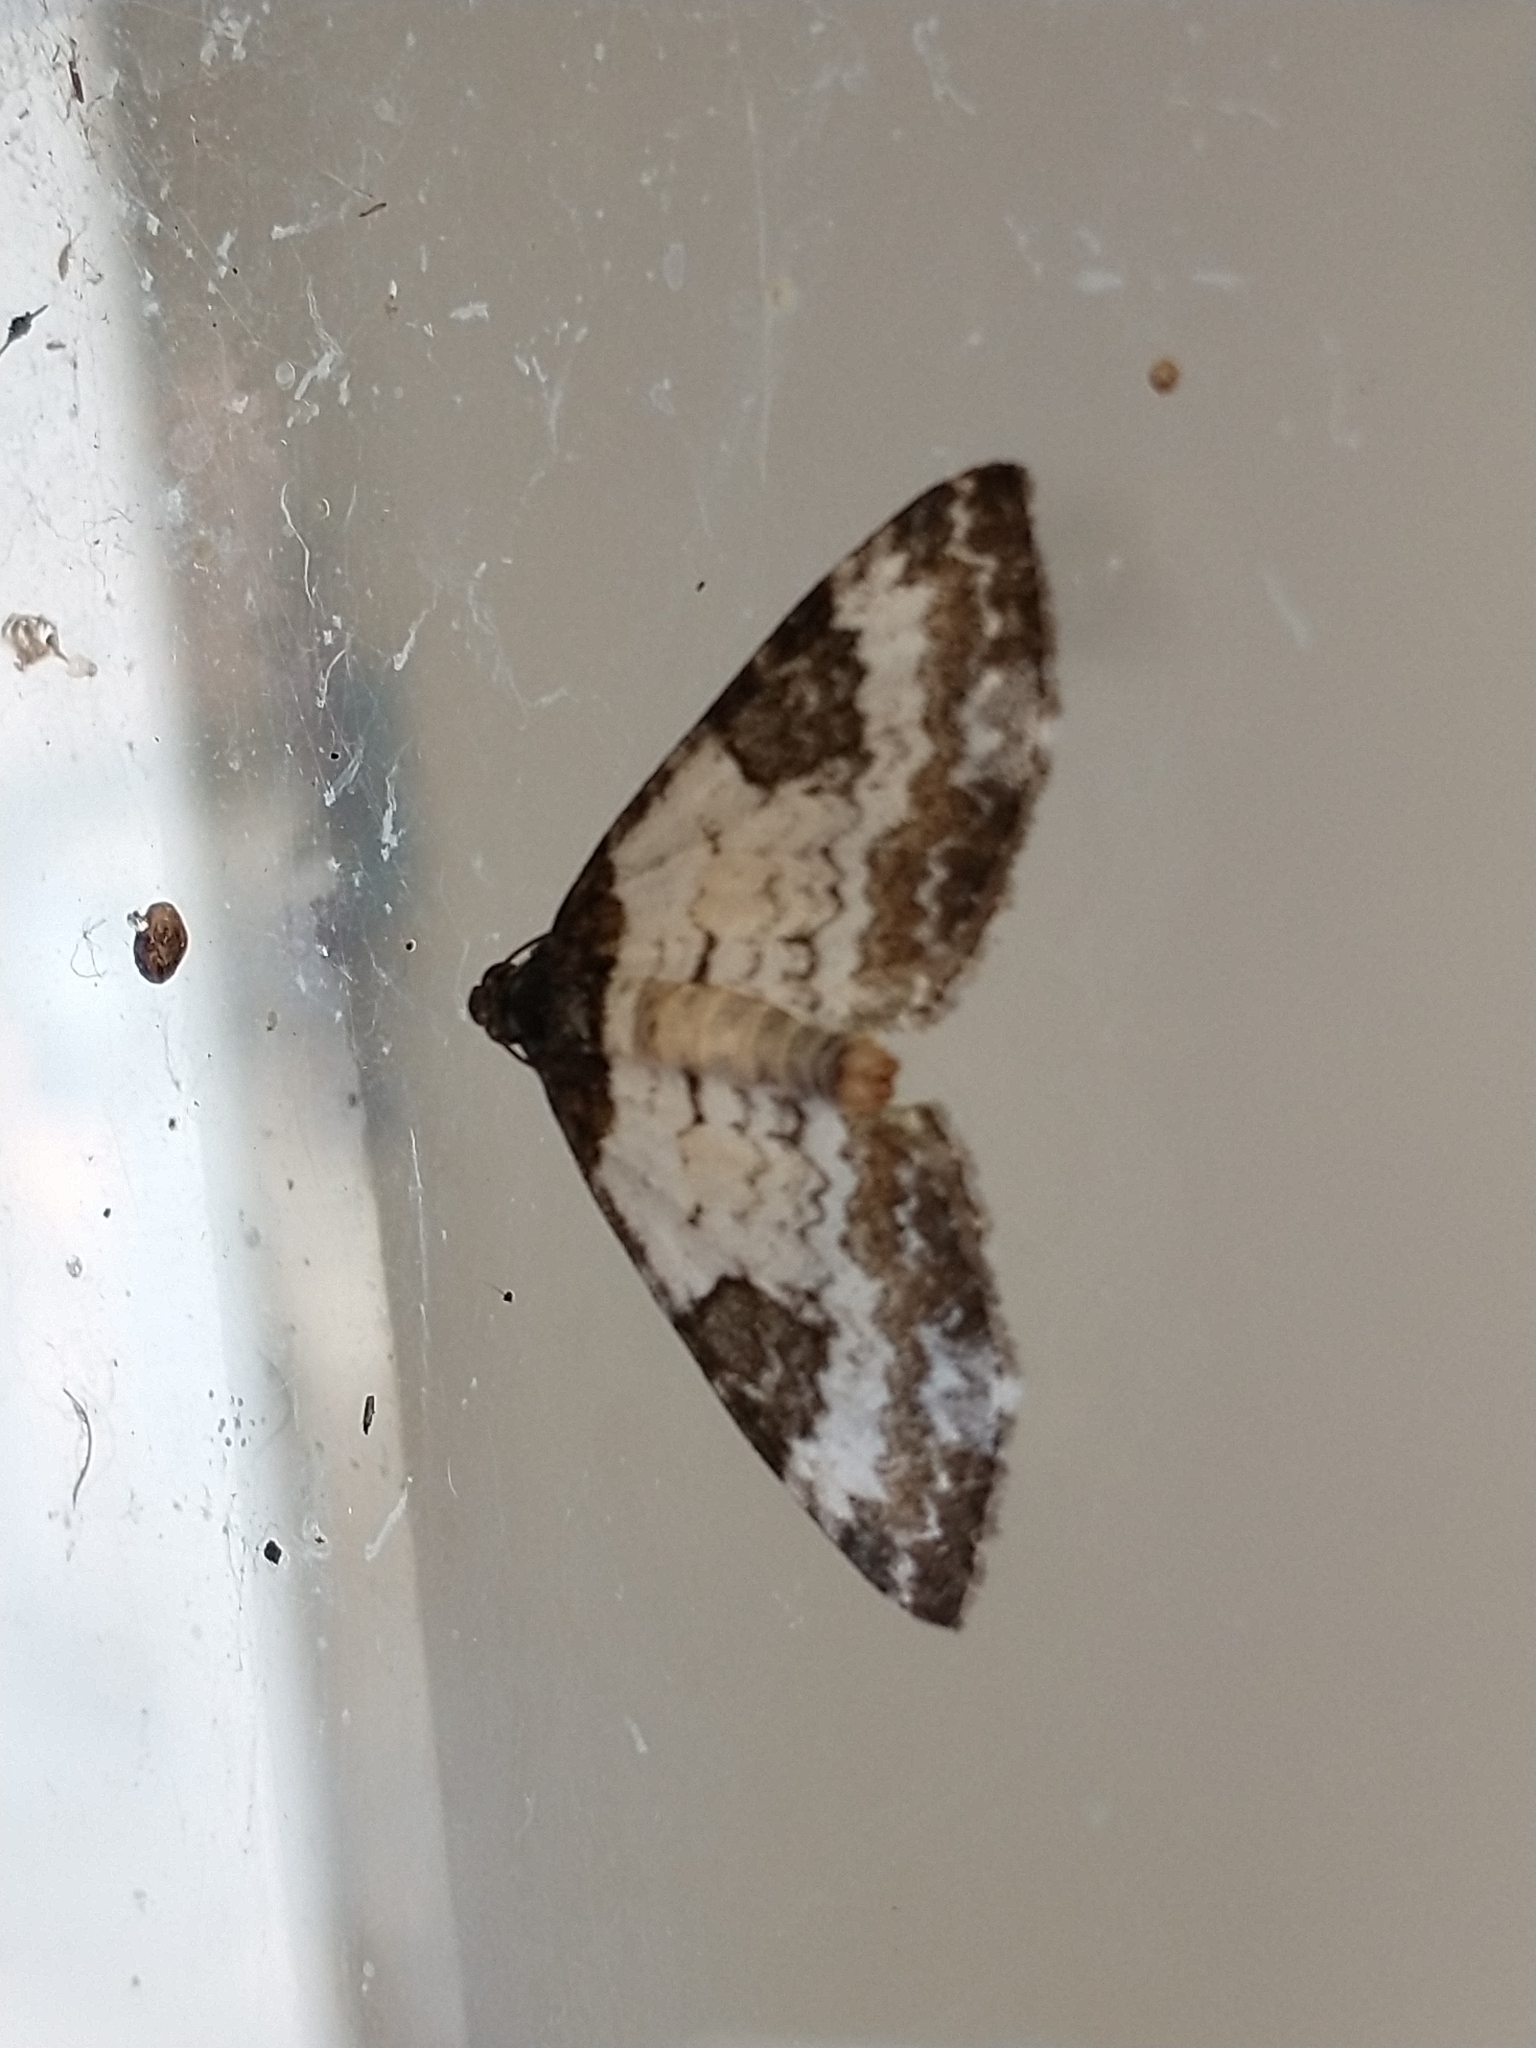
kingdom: Animalia
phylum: Arthropoda
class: Insecta
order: Lepidoptera
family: Geometridae
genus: Melanthia
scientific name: Melanthia procellata
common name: Pretty chalk carpet
